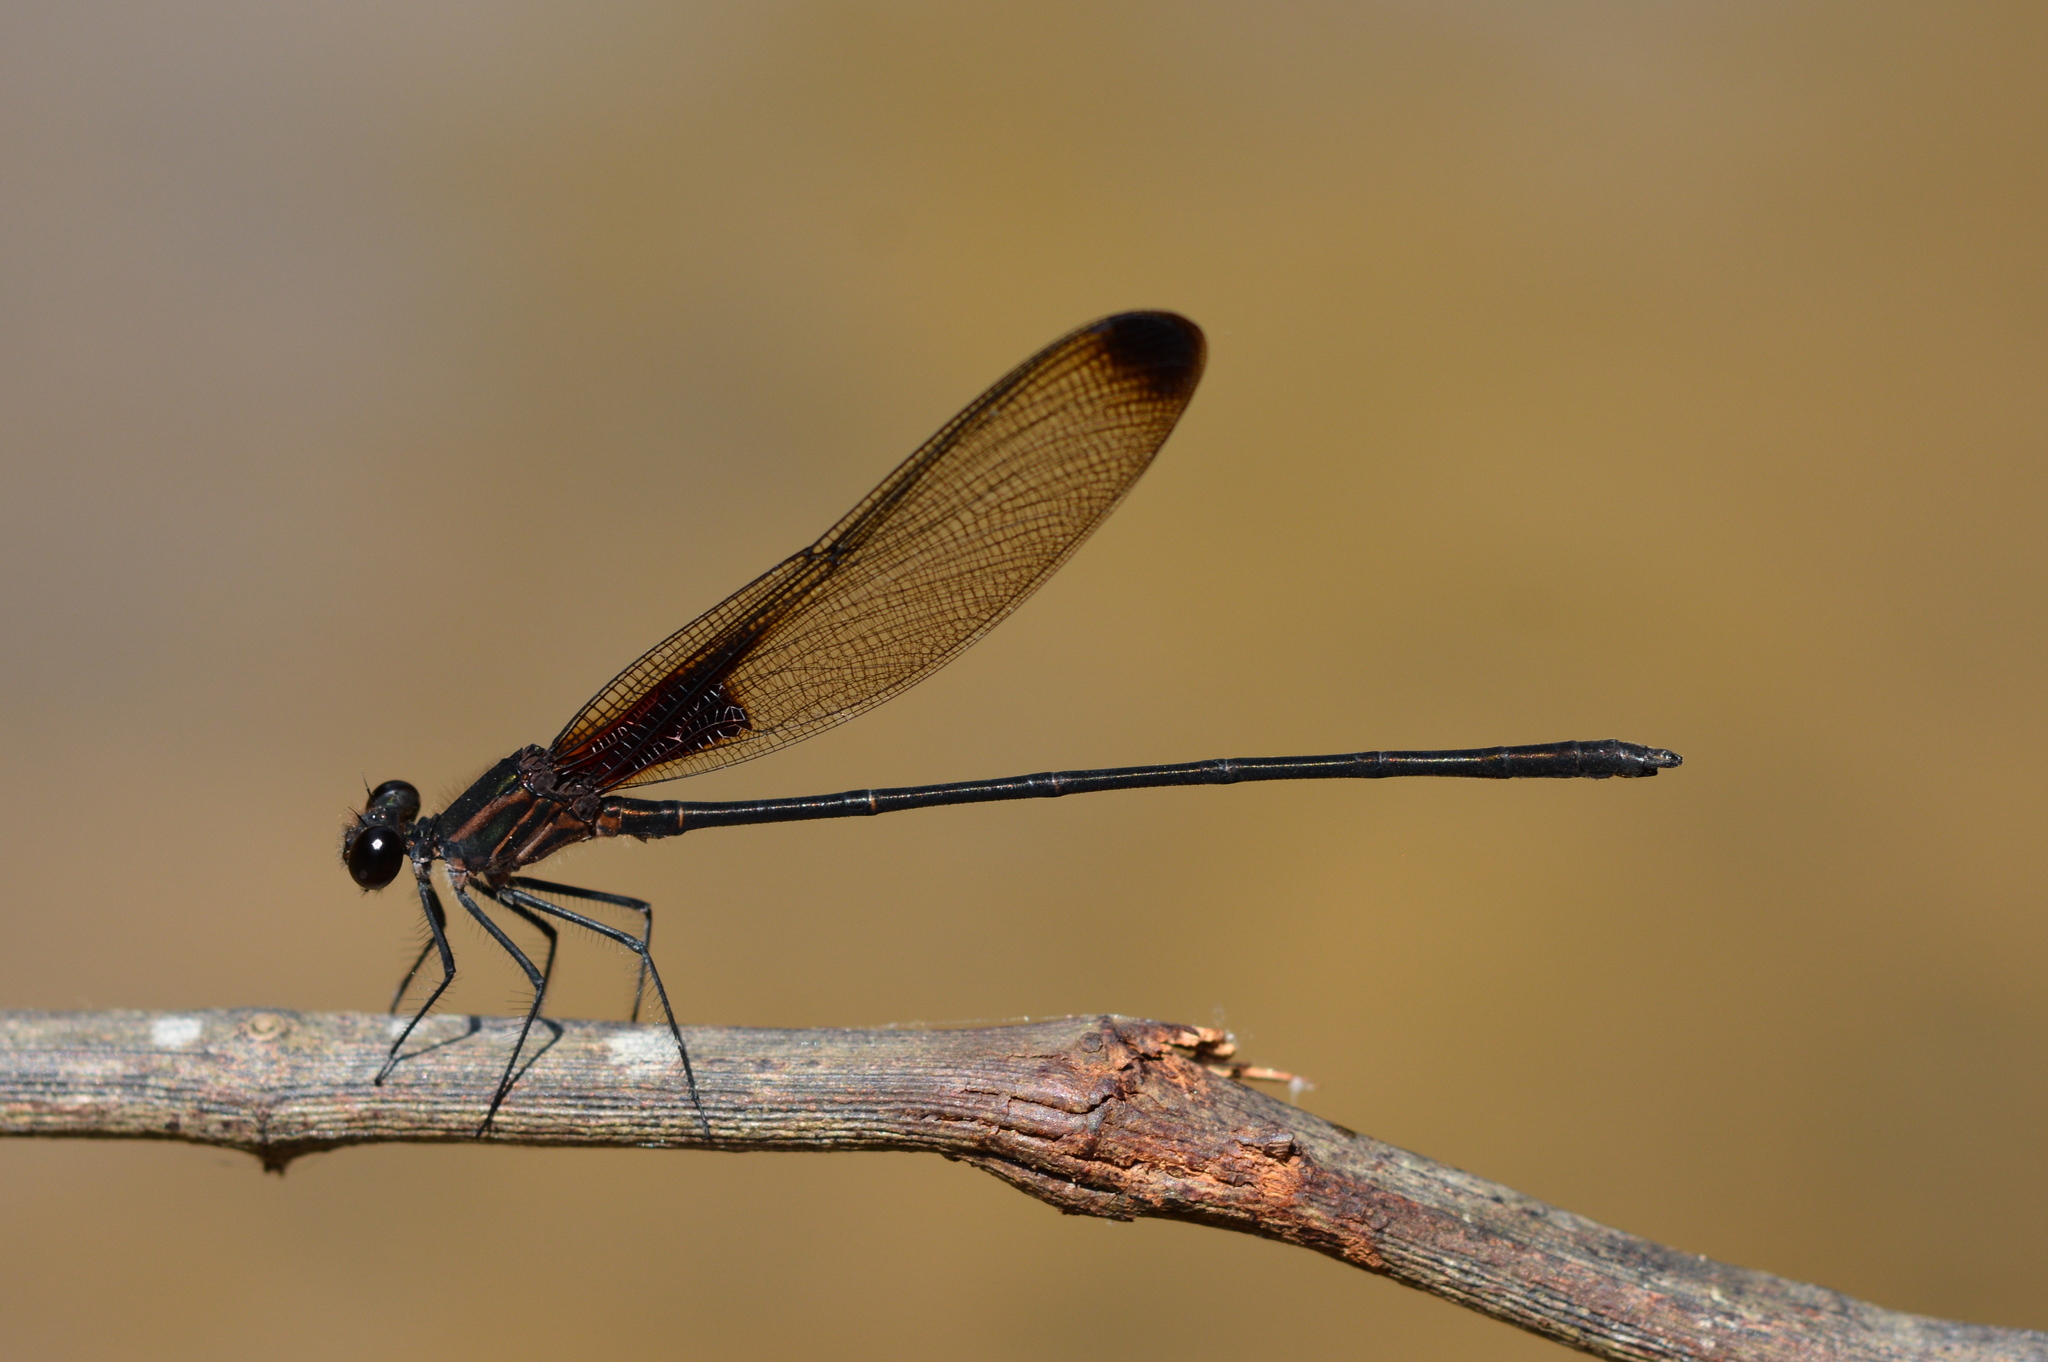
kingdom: Animalia
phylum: Arthropoda
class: Insecta
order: Odonata
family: Calopterygidae
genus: Hetaerina
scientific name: Hetaerina titia
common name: Smoky rubyspot
